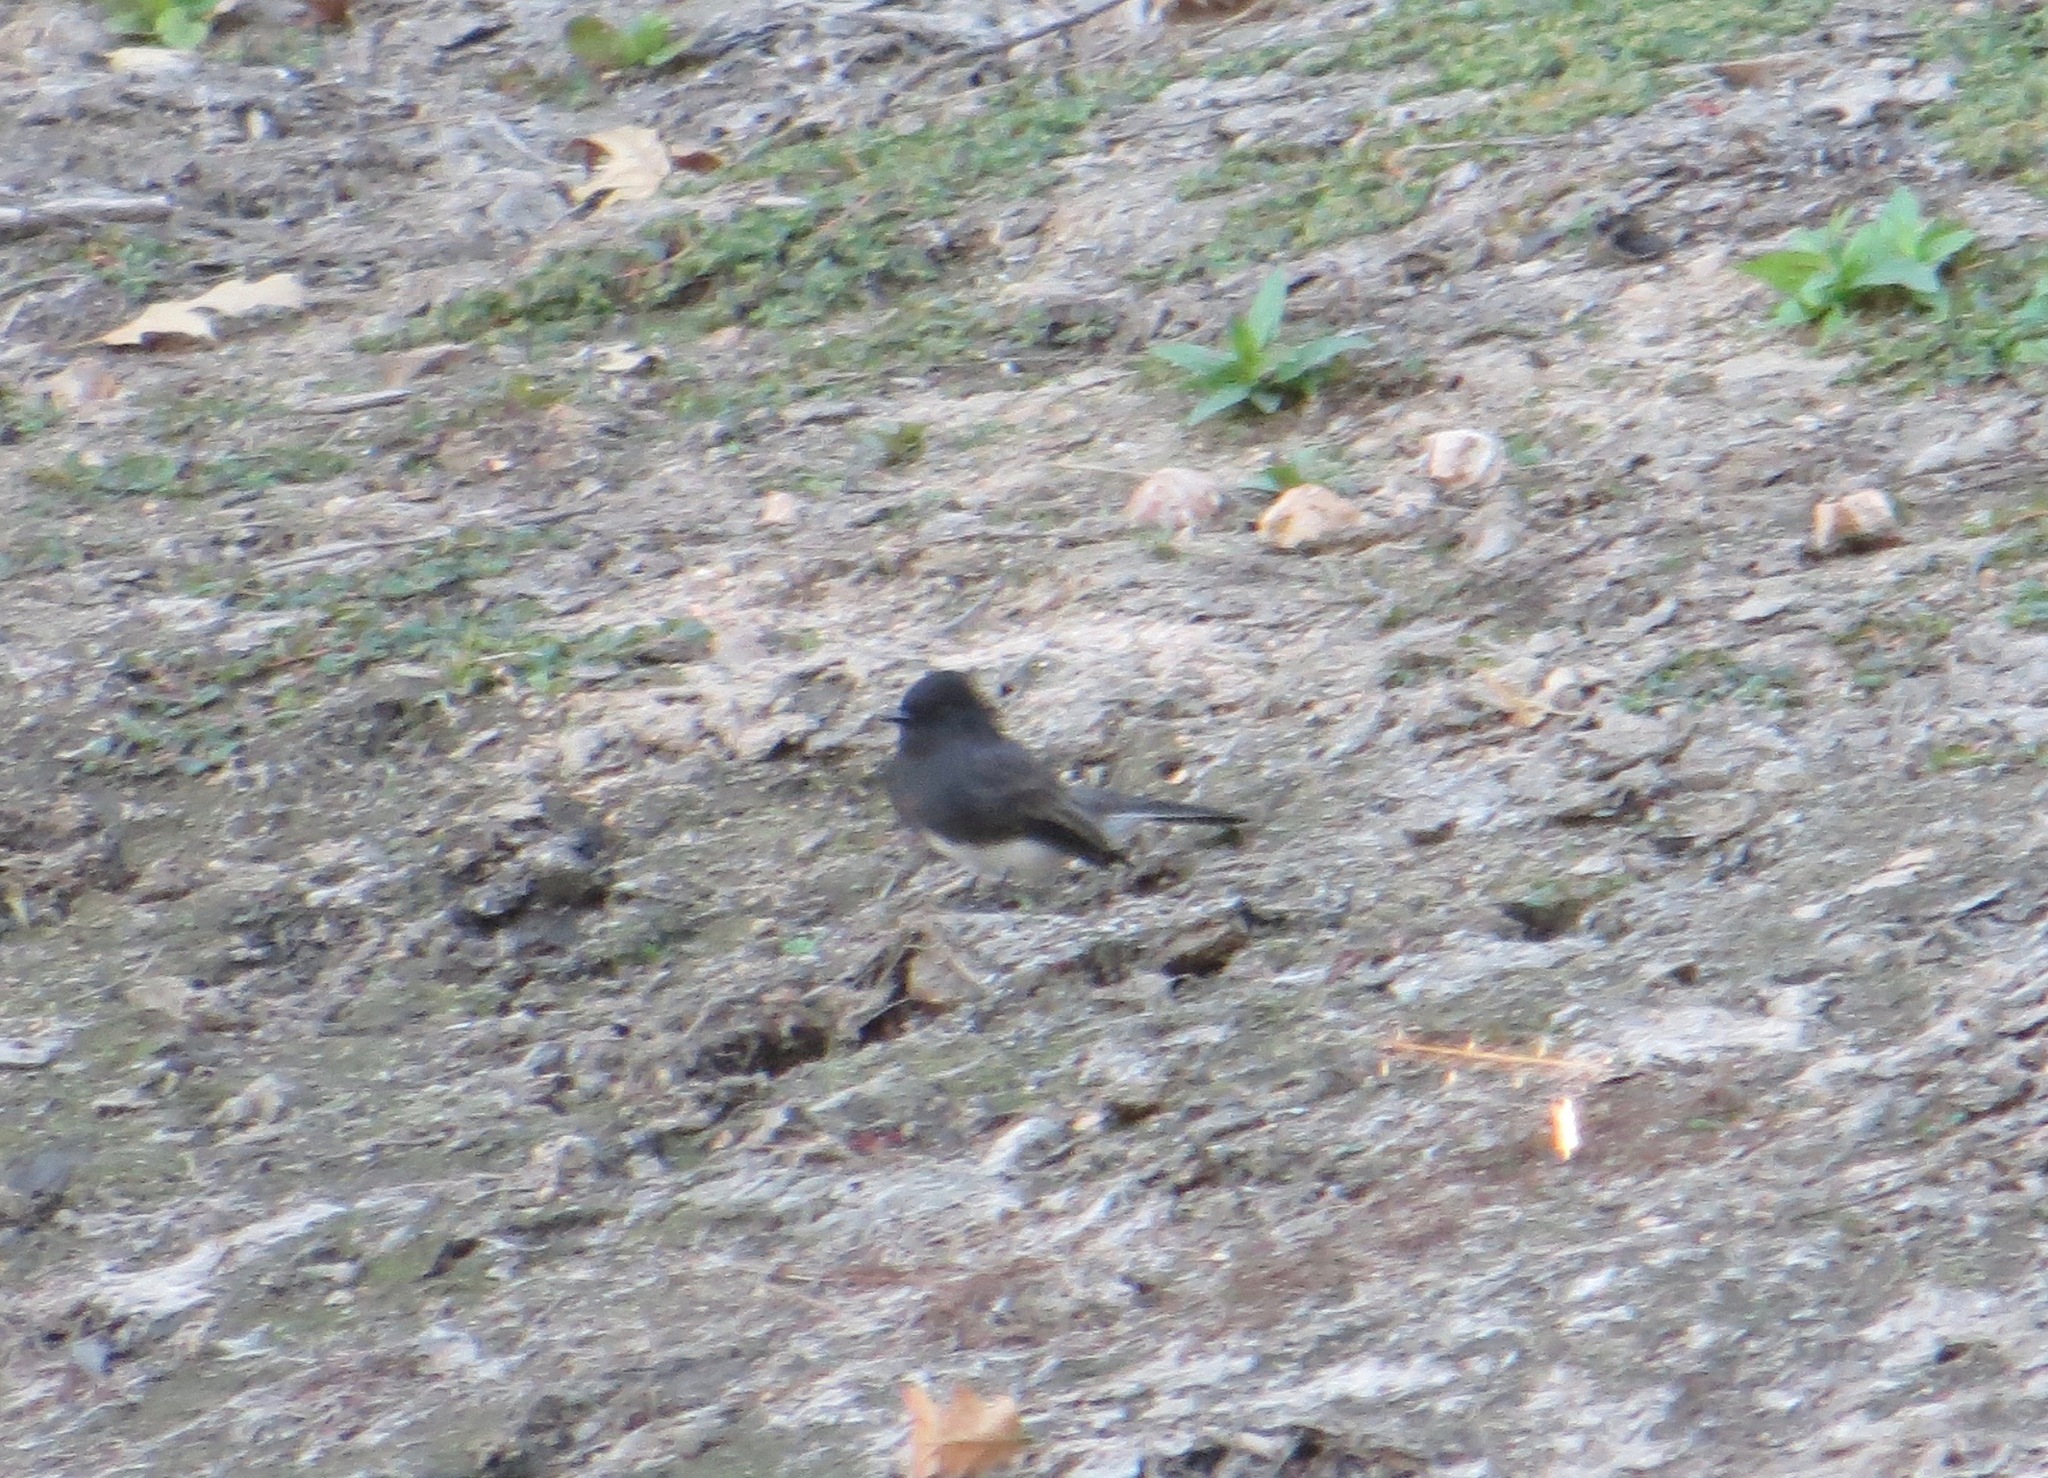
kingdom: Animalia
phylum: Chordata
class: Aves
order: Passeriformes
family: Tyrannidae
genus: Sayornis
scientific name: Sayornis nigricans
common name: Black phoebe
